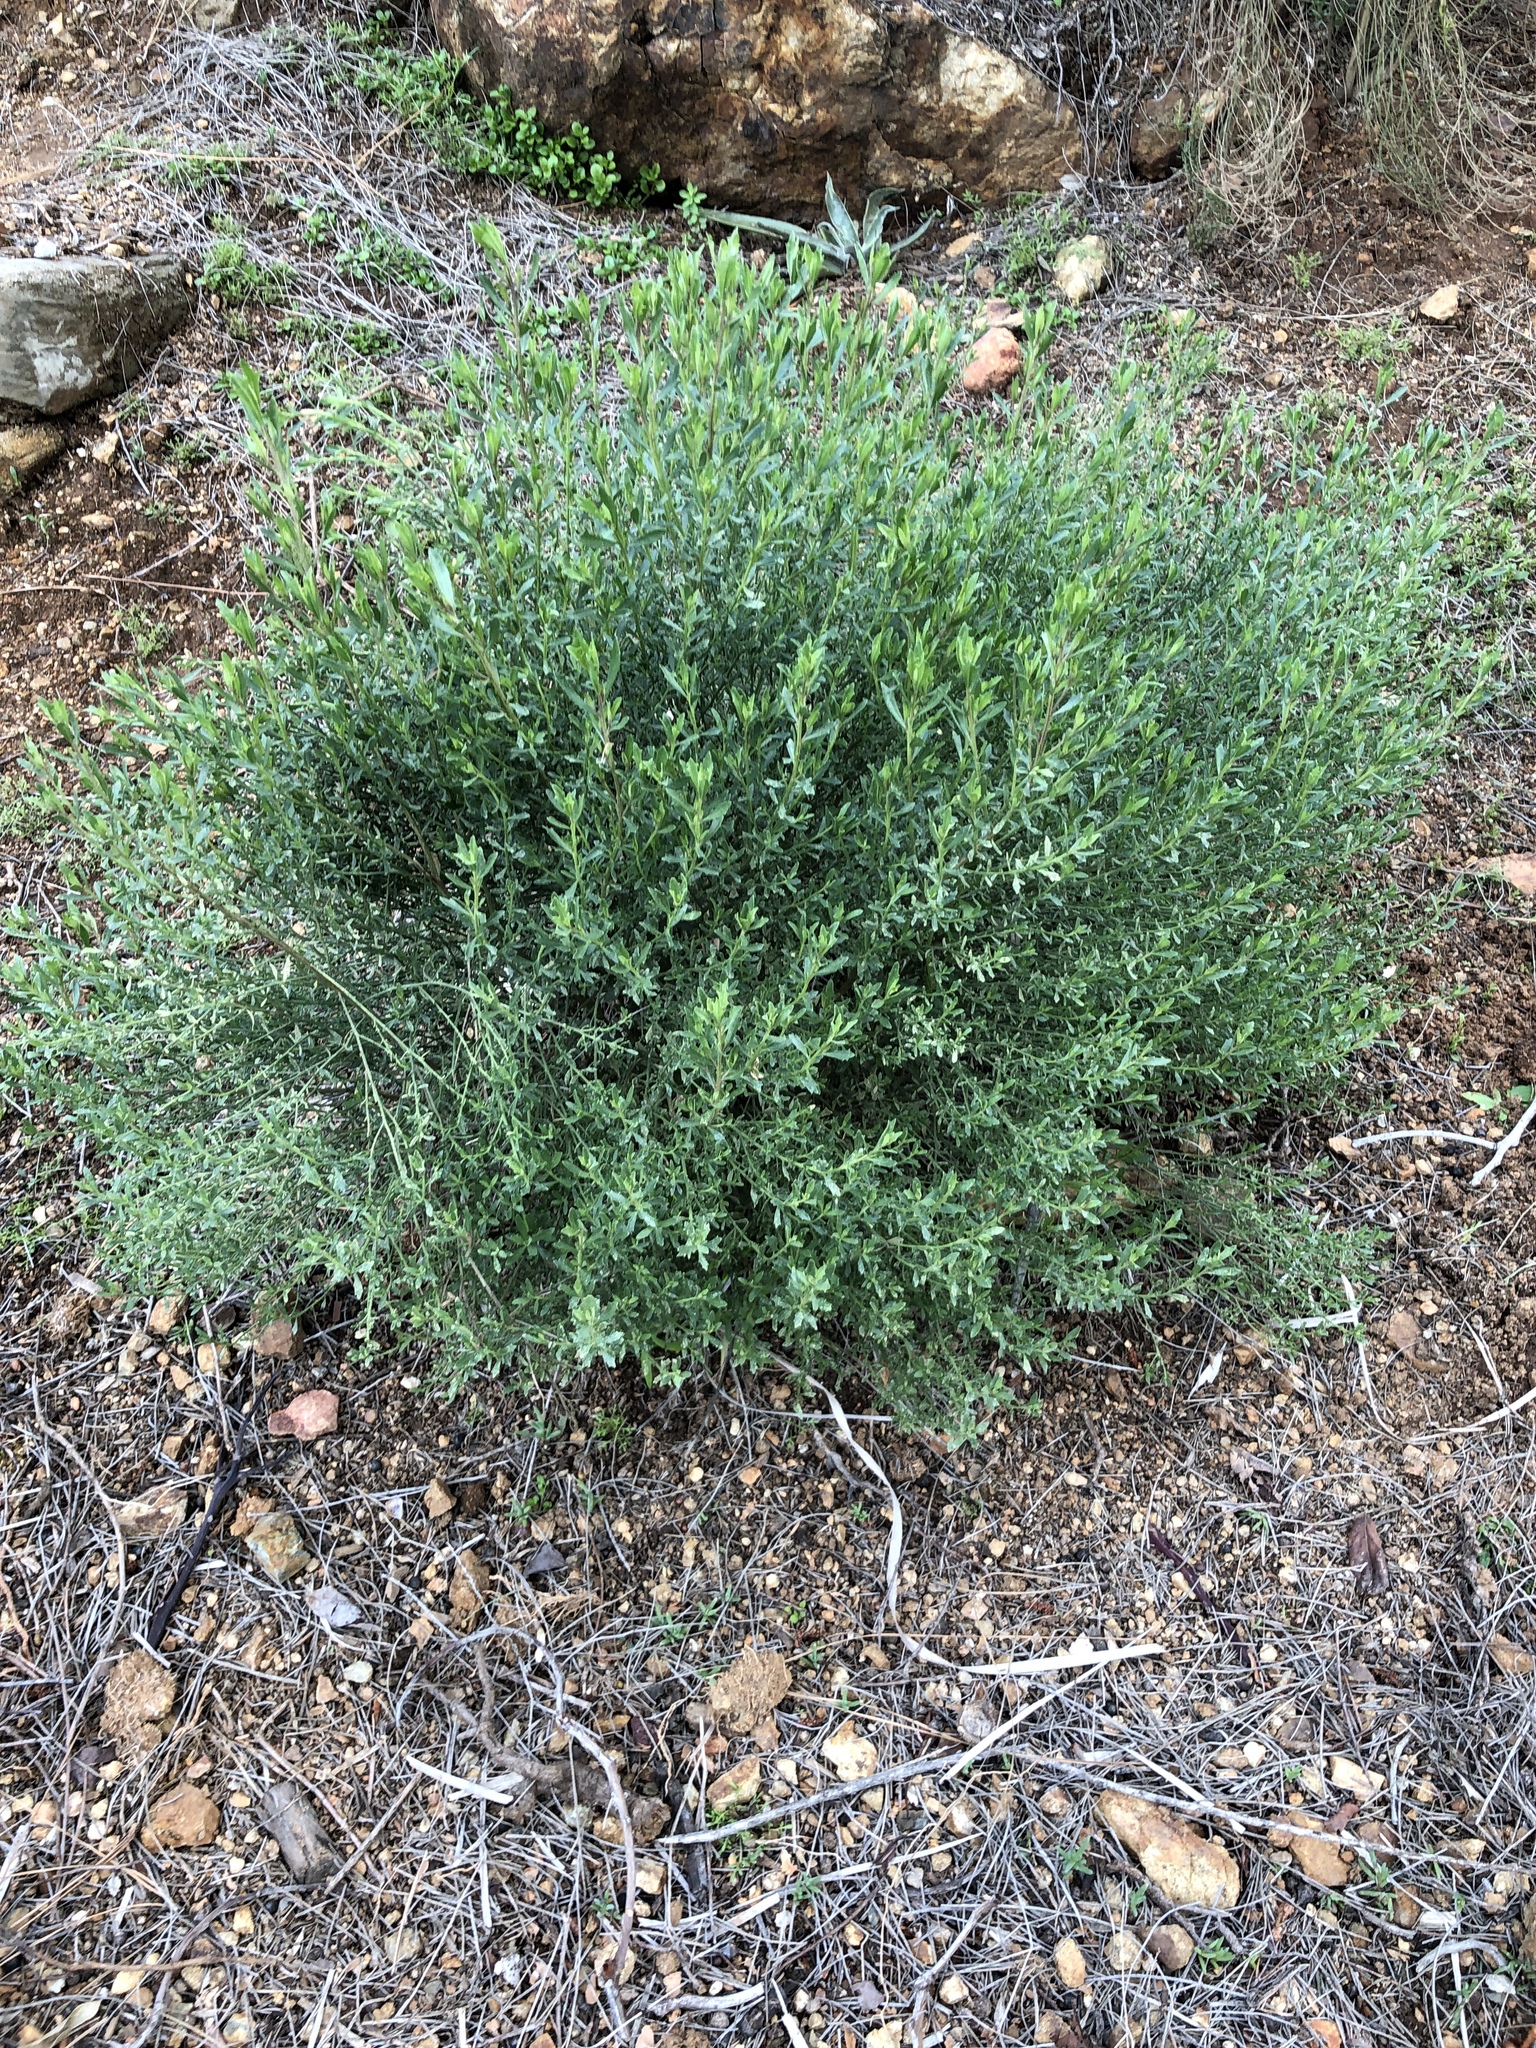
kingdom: Plantae
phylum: Tracheophyta
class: Magnoliopsida
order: Asterales
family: Asteraceae
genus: Baccharis
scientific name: Baccharis pilularis
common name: Coyotebrush
